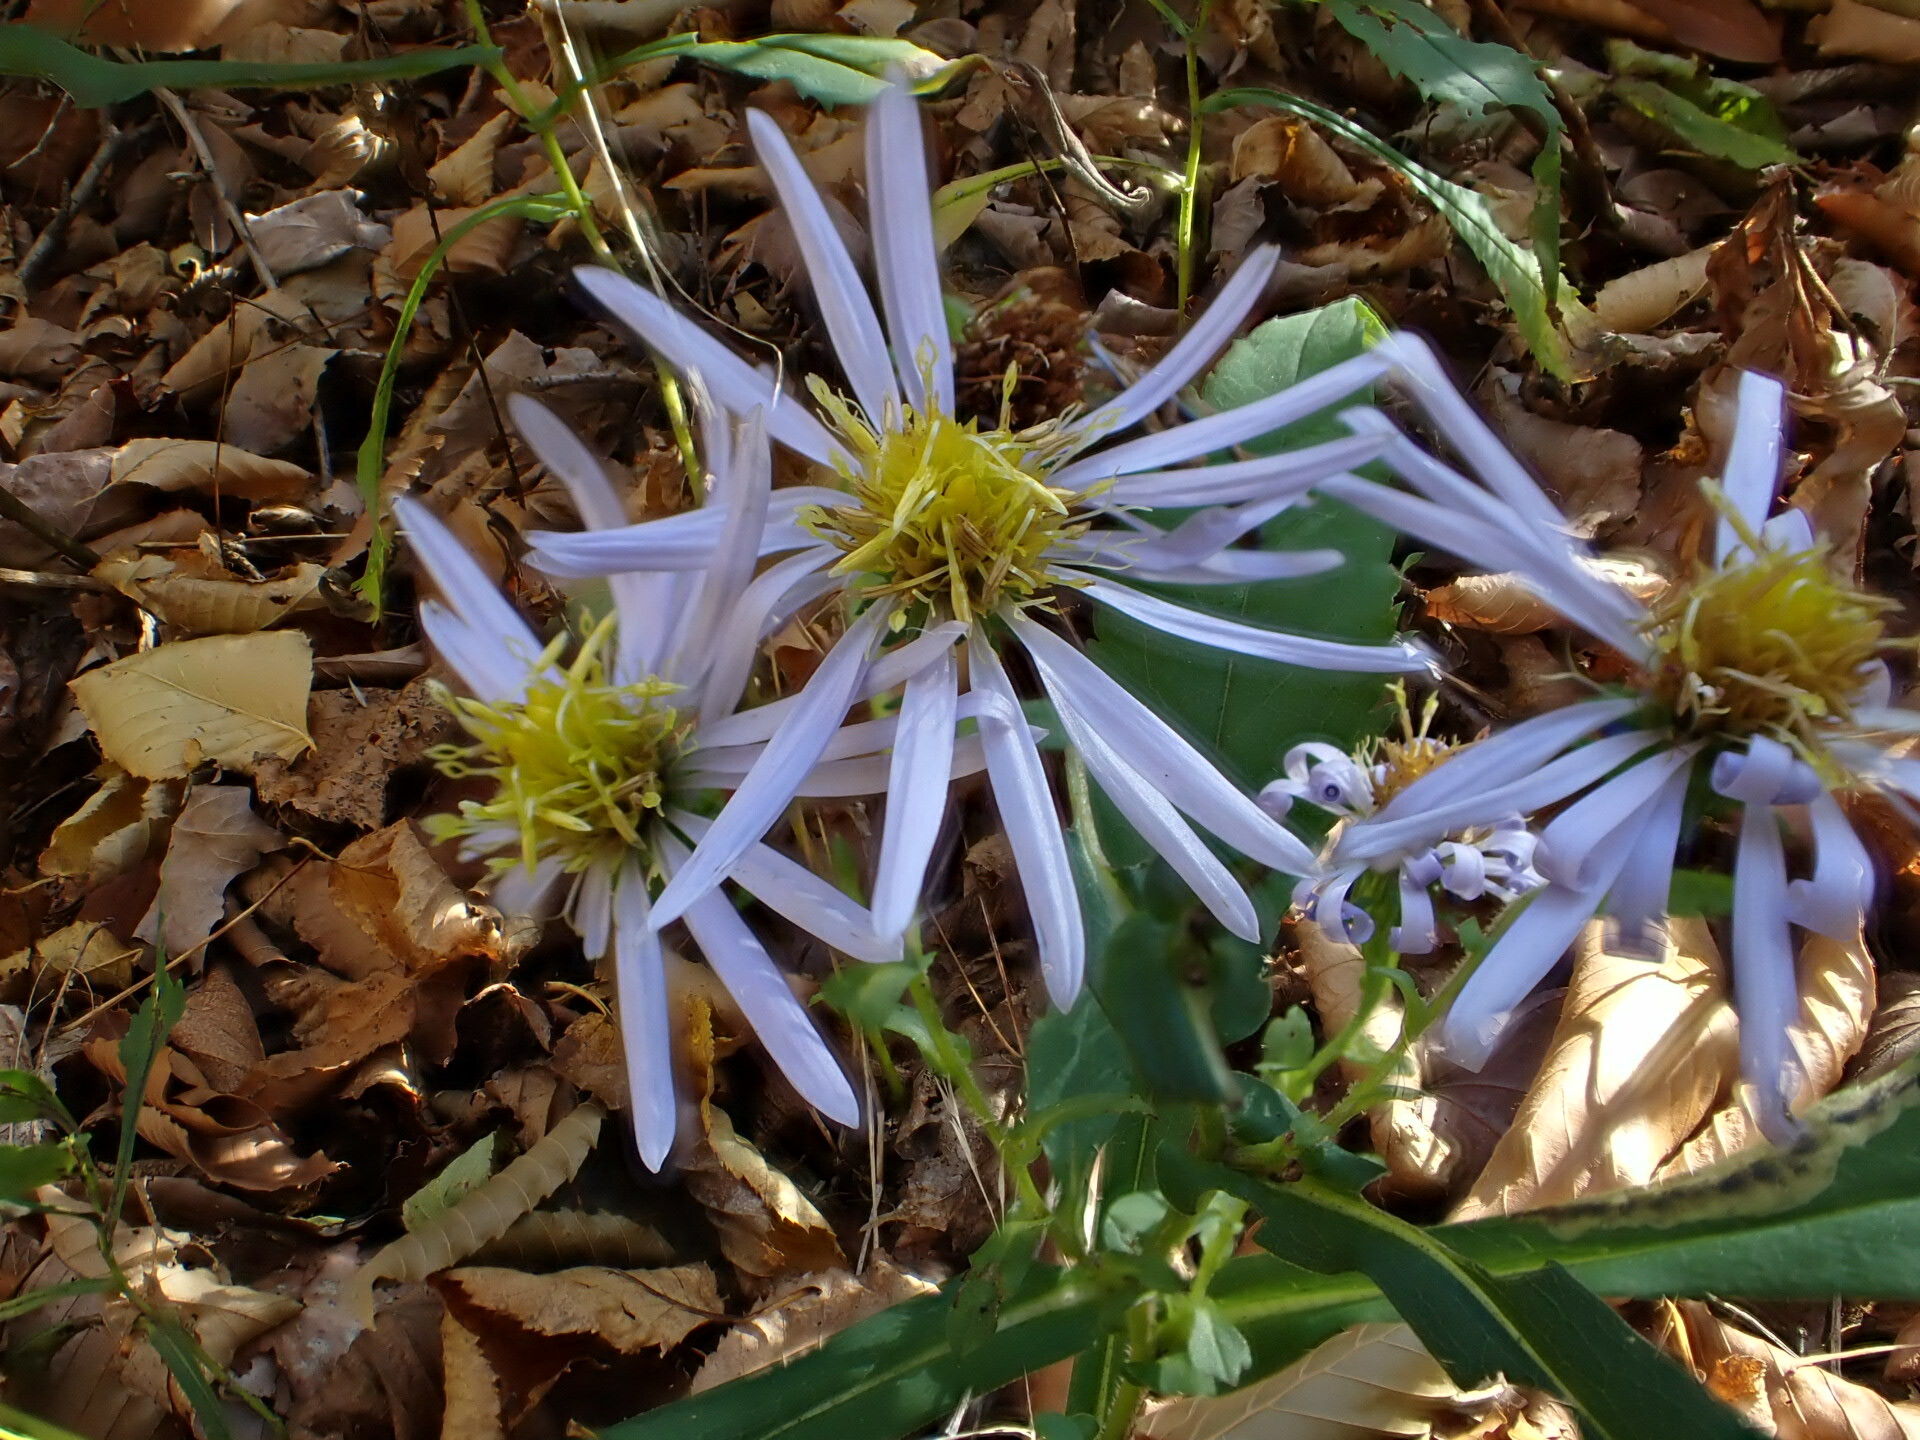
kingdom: Plantae
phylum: Tracheophyta
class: Magnoliopsida
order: Asterales
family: Asteraceae
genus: Symphyotrichum
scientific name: Symphyotrichum prenanthoides
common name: Crooked-stem aster
